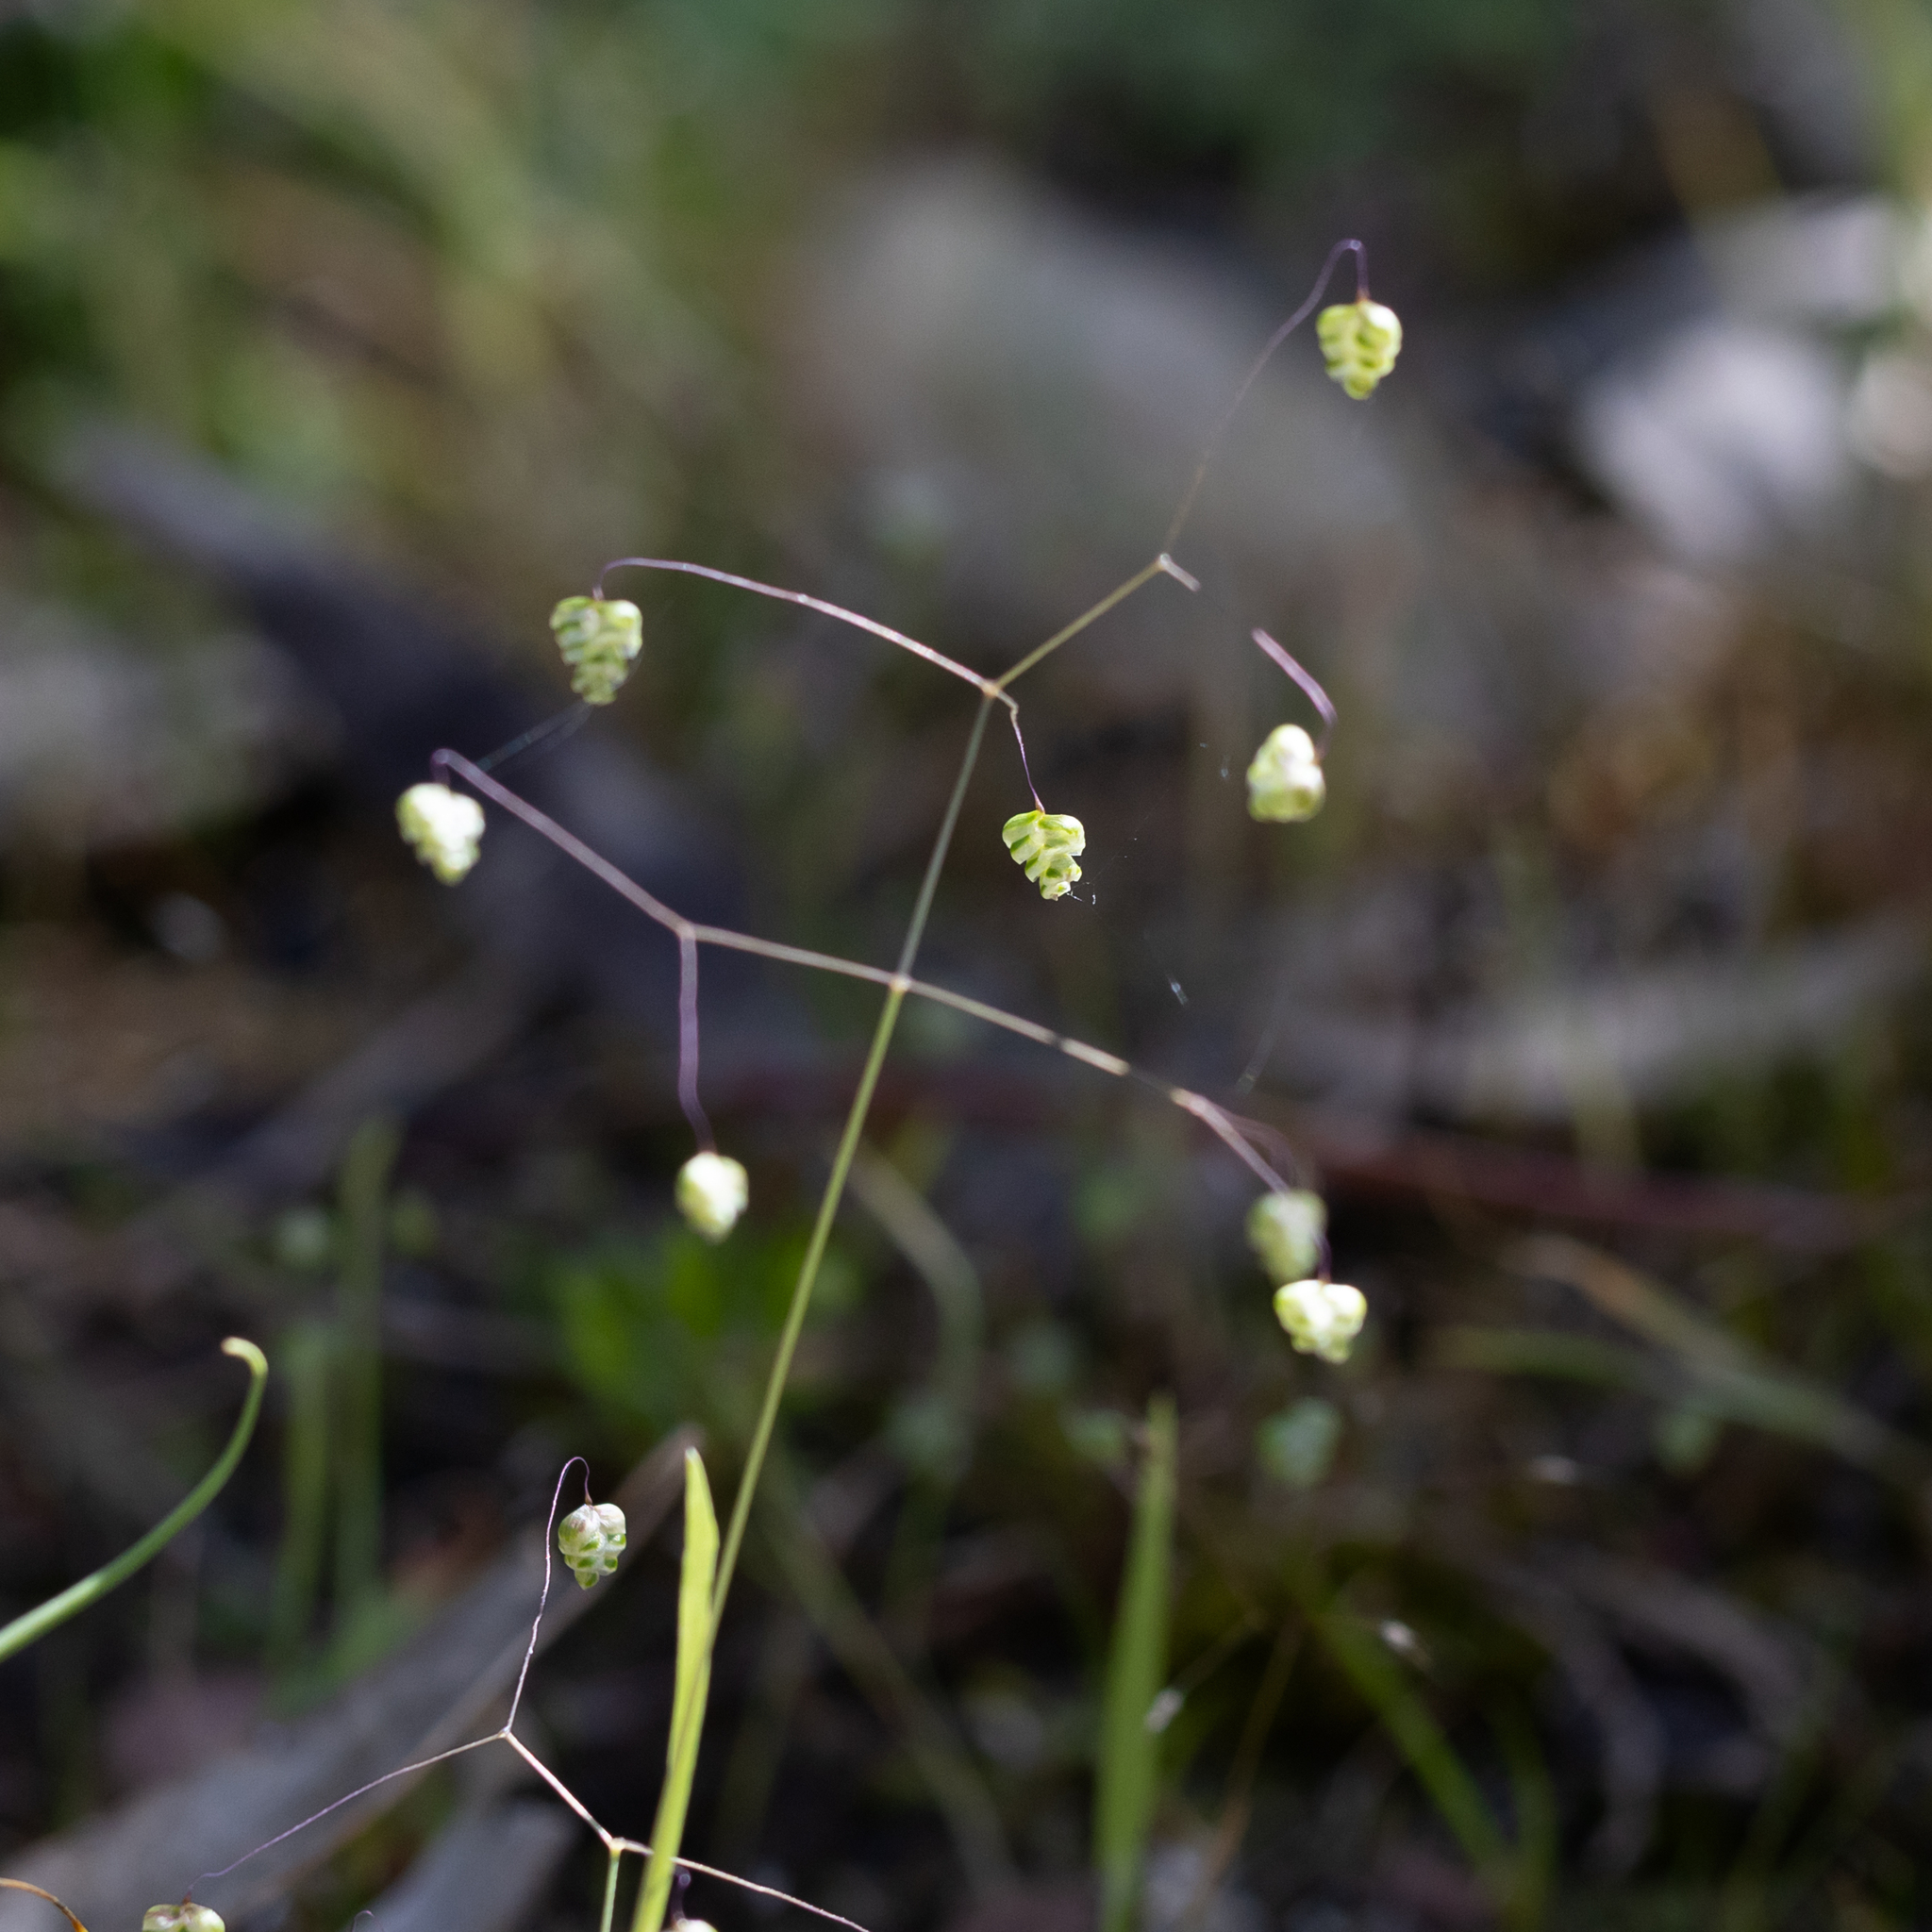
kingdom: Plantae
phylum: Tracheophyta
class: Liliopsida
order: Poales
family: Poaceae
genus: Briza
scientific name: Briza minor
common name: Lesser quaking-grass
